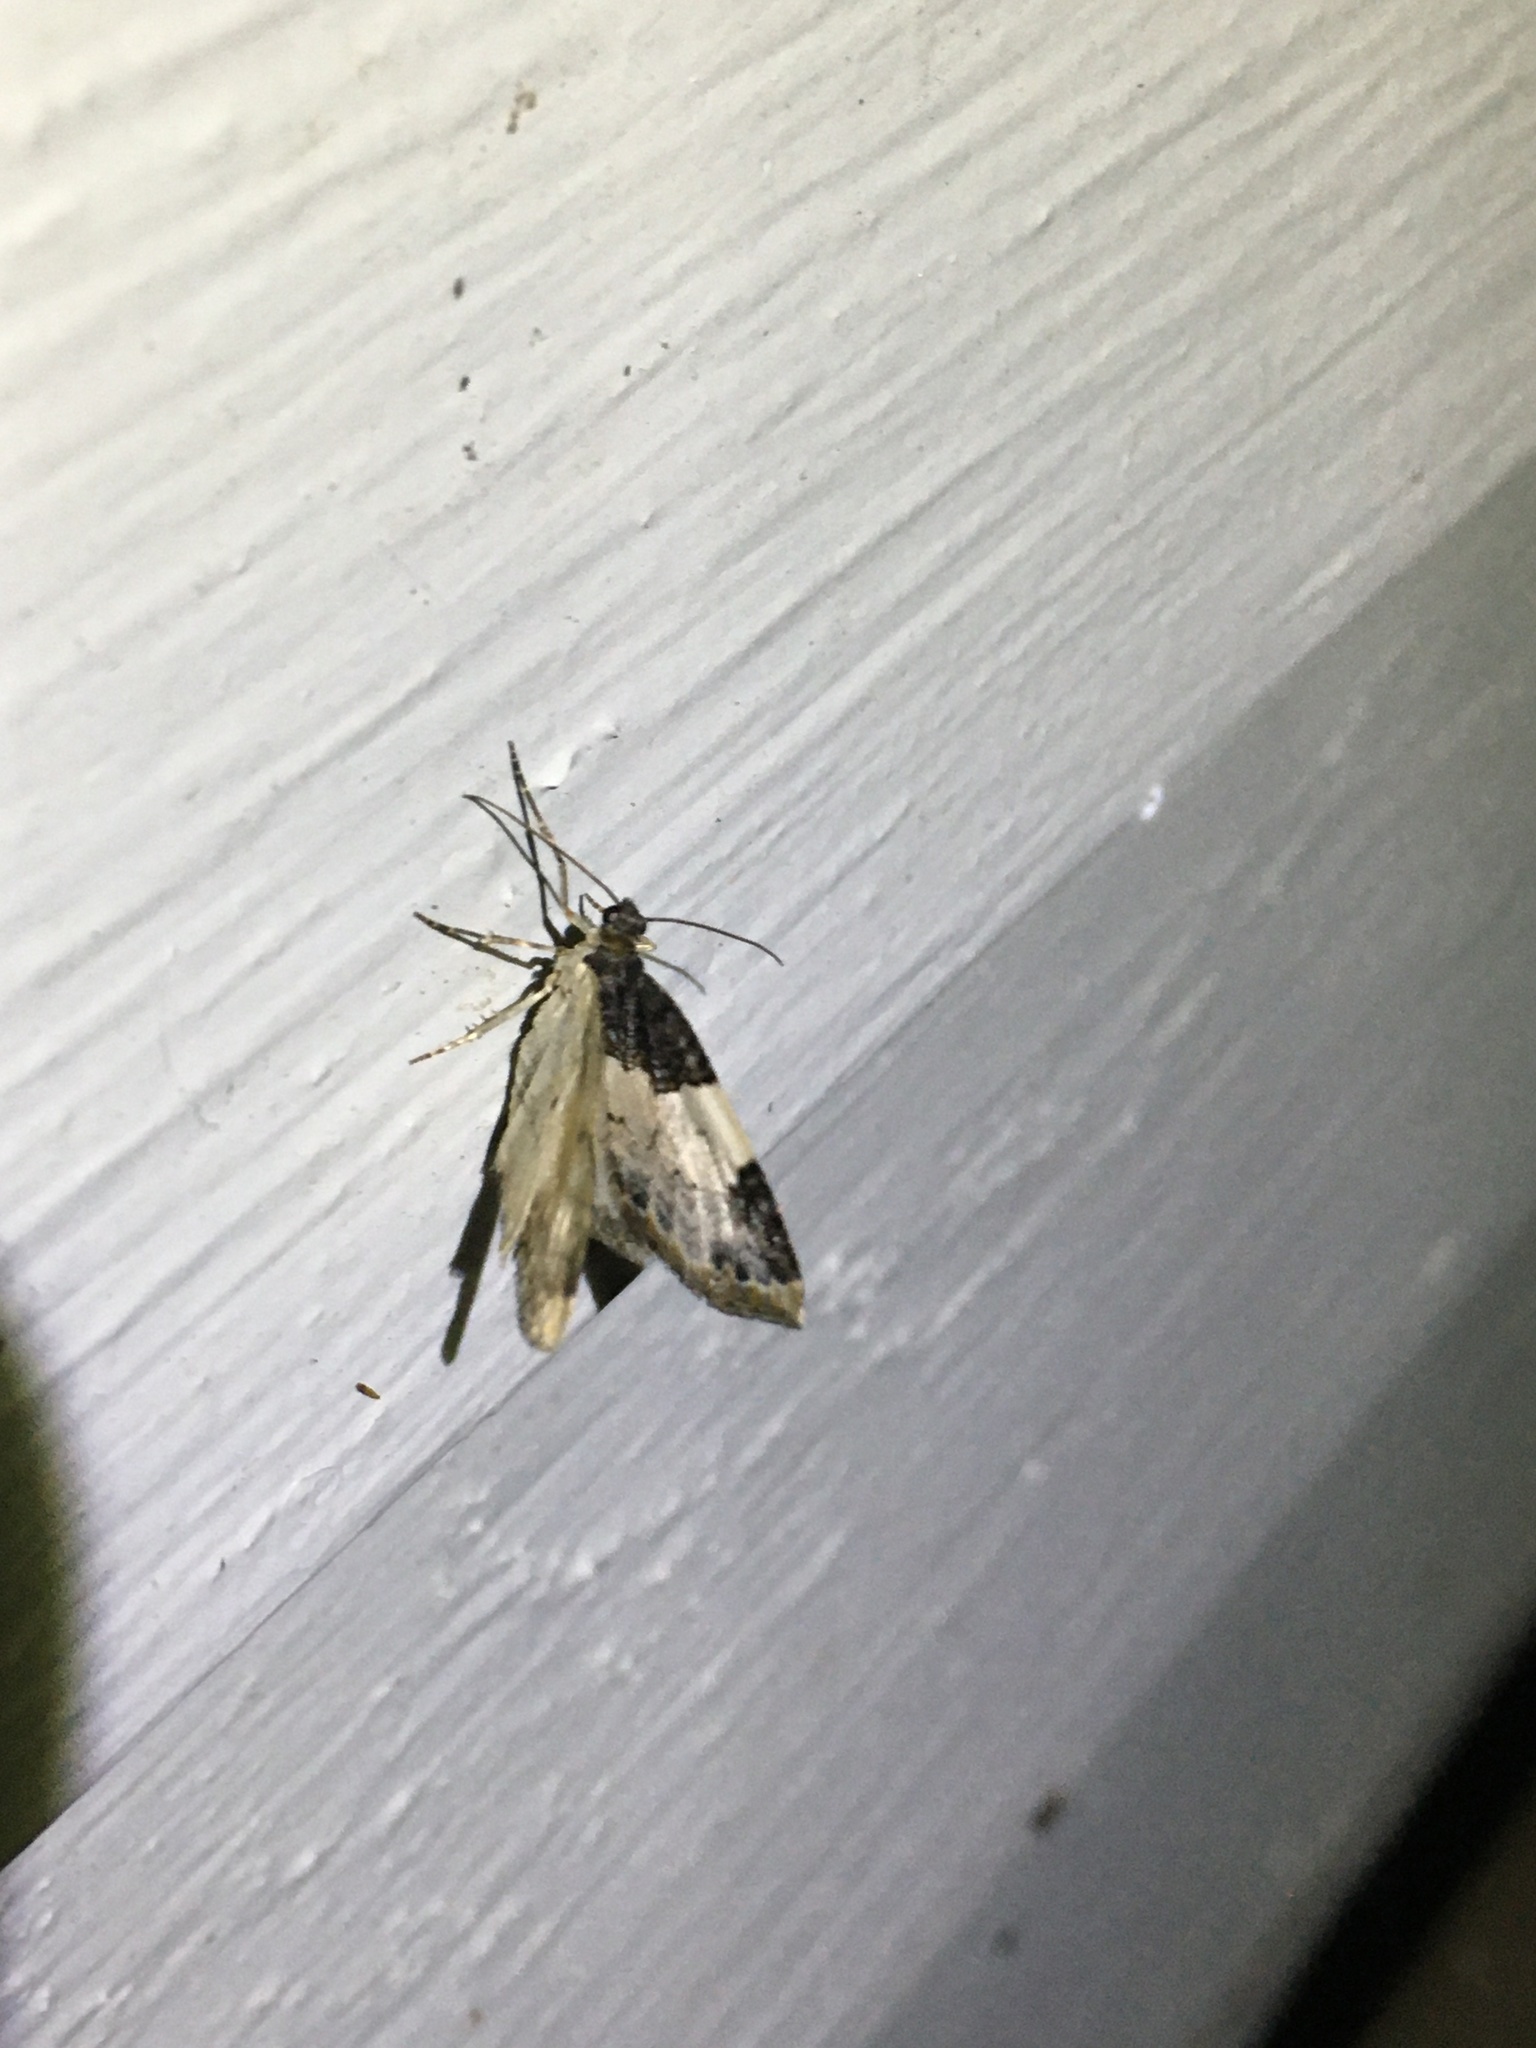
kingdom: Animalia
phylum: Arthropoda
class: Insecta
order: Lepidoptera
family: Geometridae
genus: Mesoleuca
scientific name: Mesoleuca ruficillata
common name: White-ribboned carpet moth
